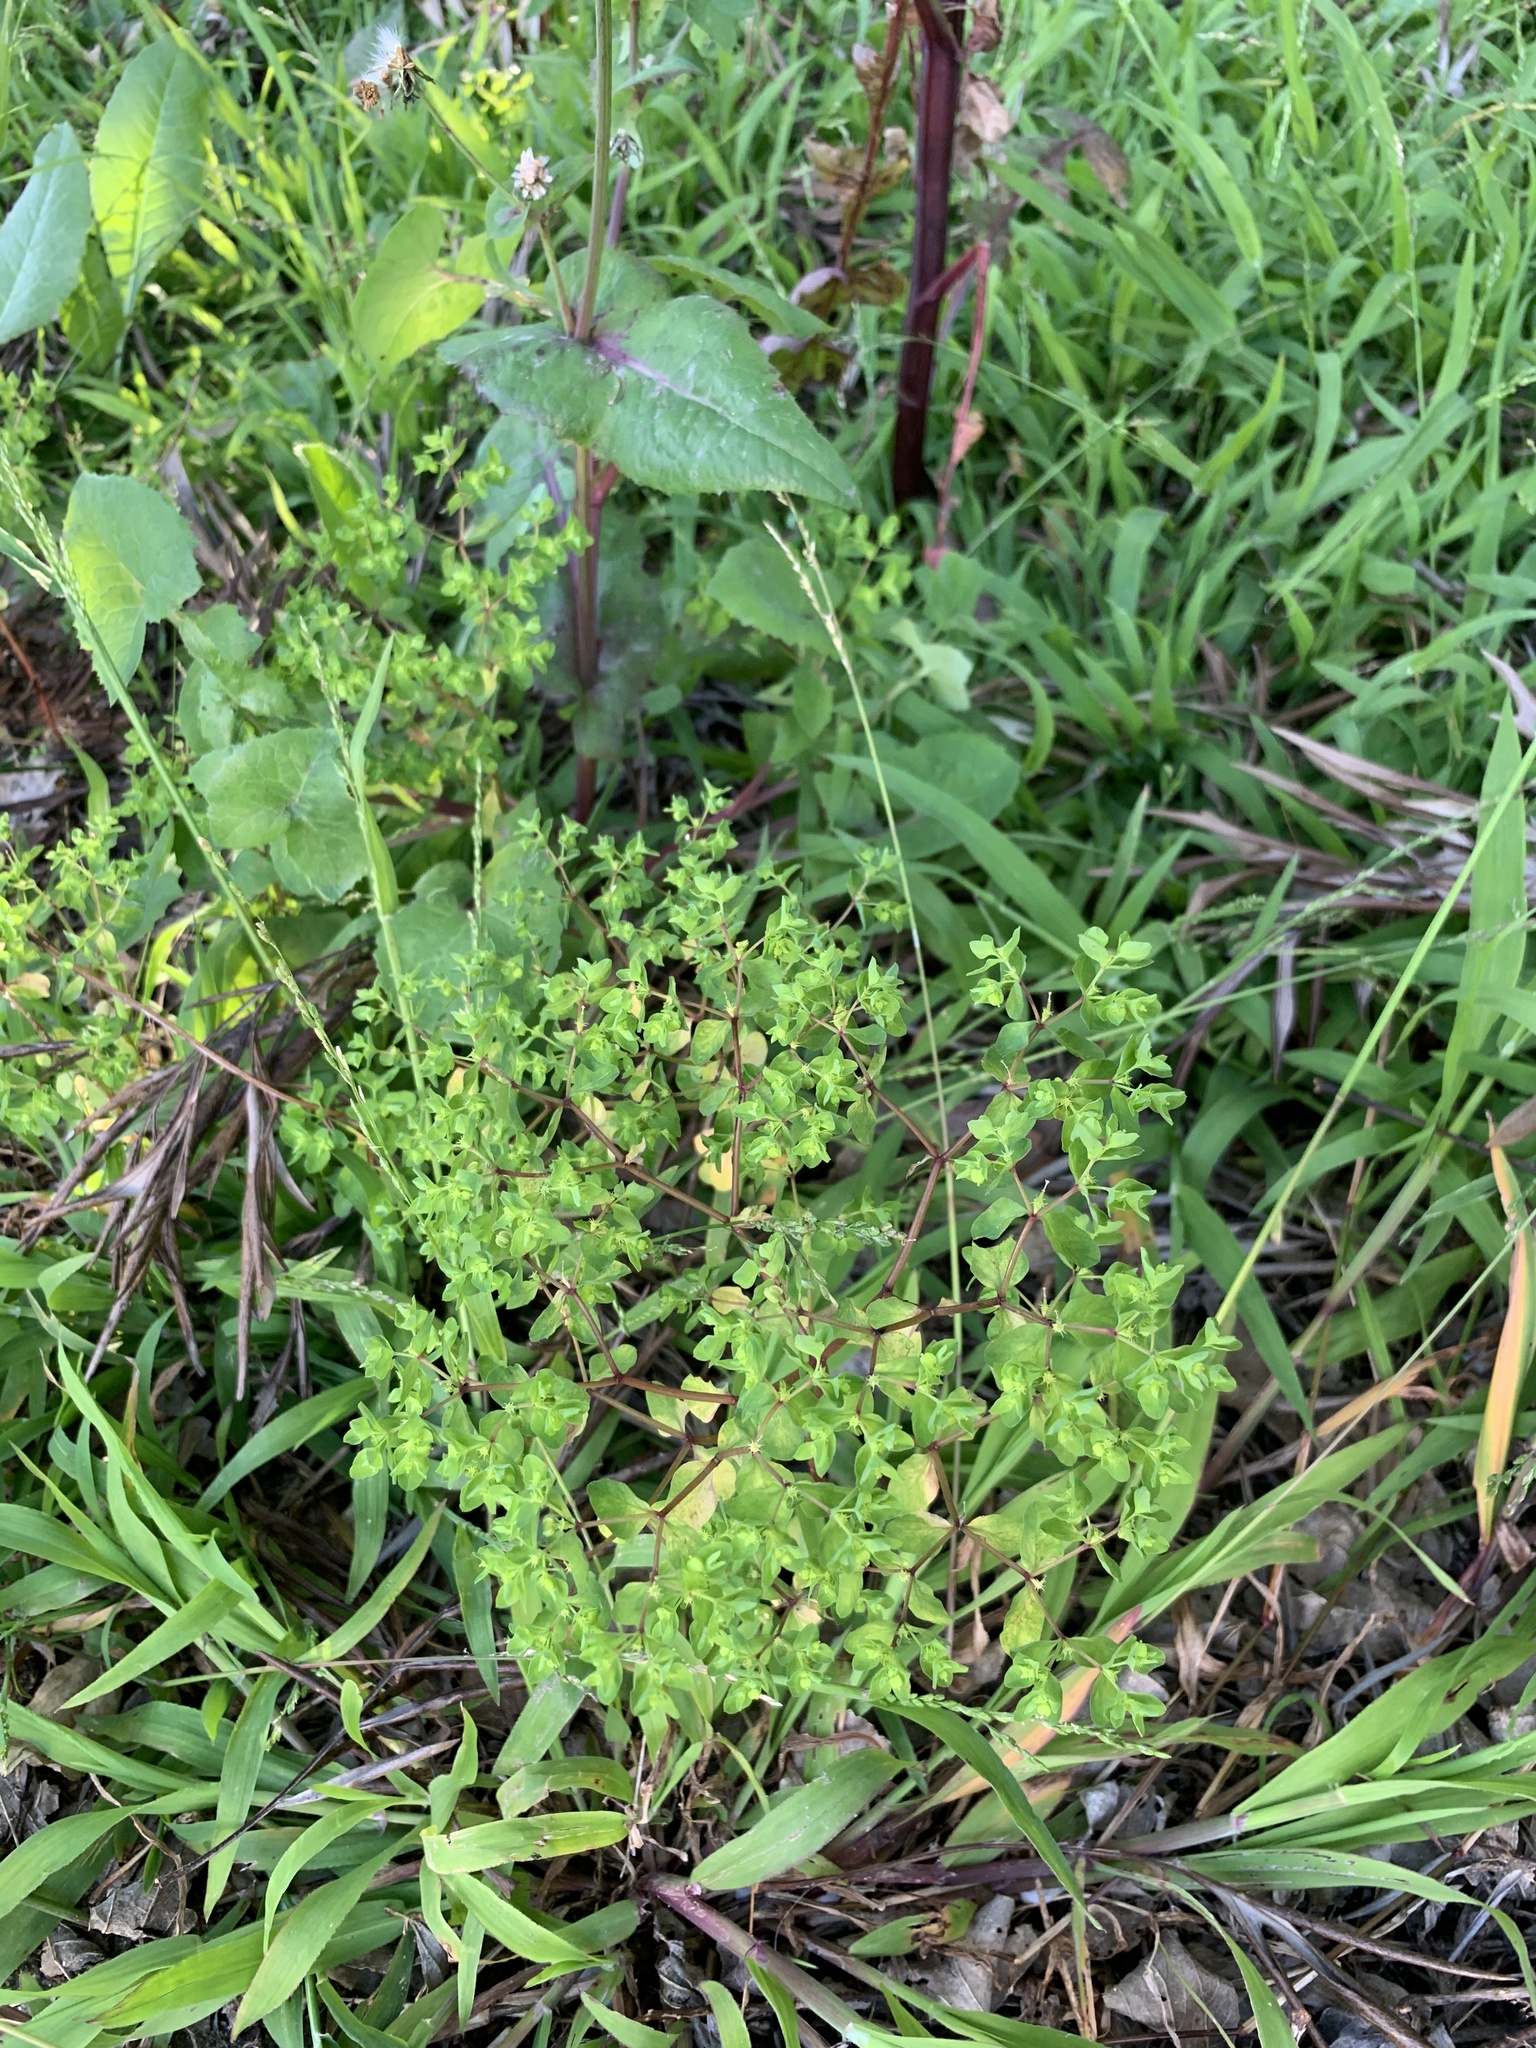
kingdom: Plantae
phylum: Tracheophyta
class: Magnoliopsida
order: Malpighiales
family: Euphorbiaceae
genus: Euphorbia
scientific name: Euphorbia peplus
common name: Petty spurge
